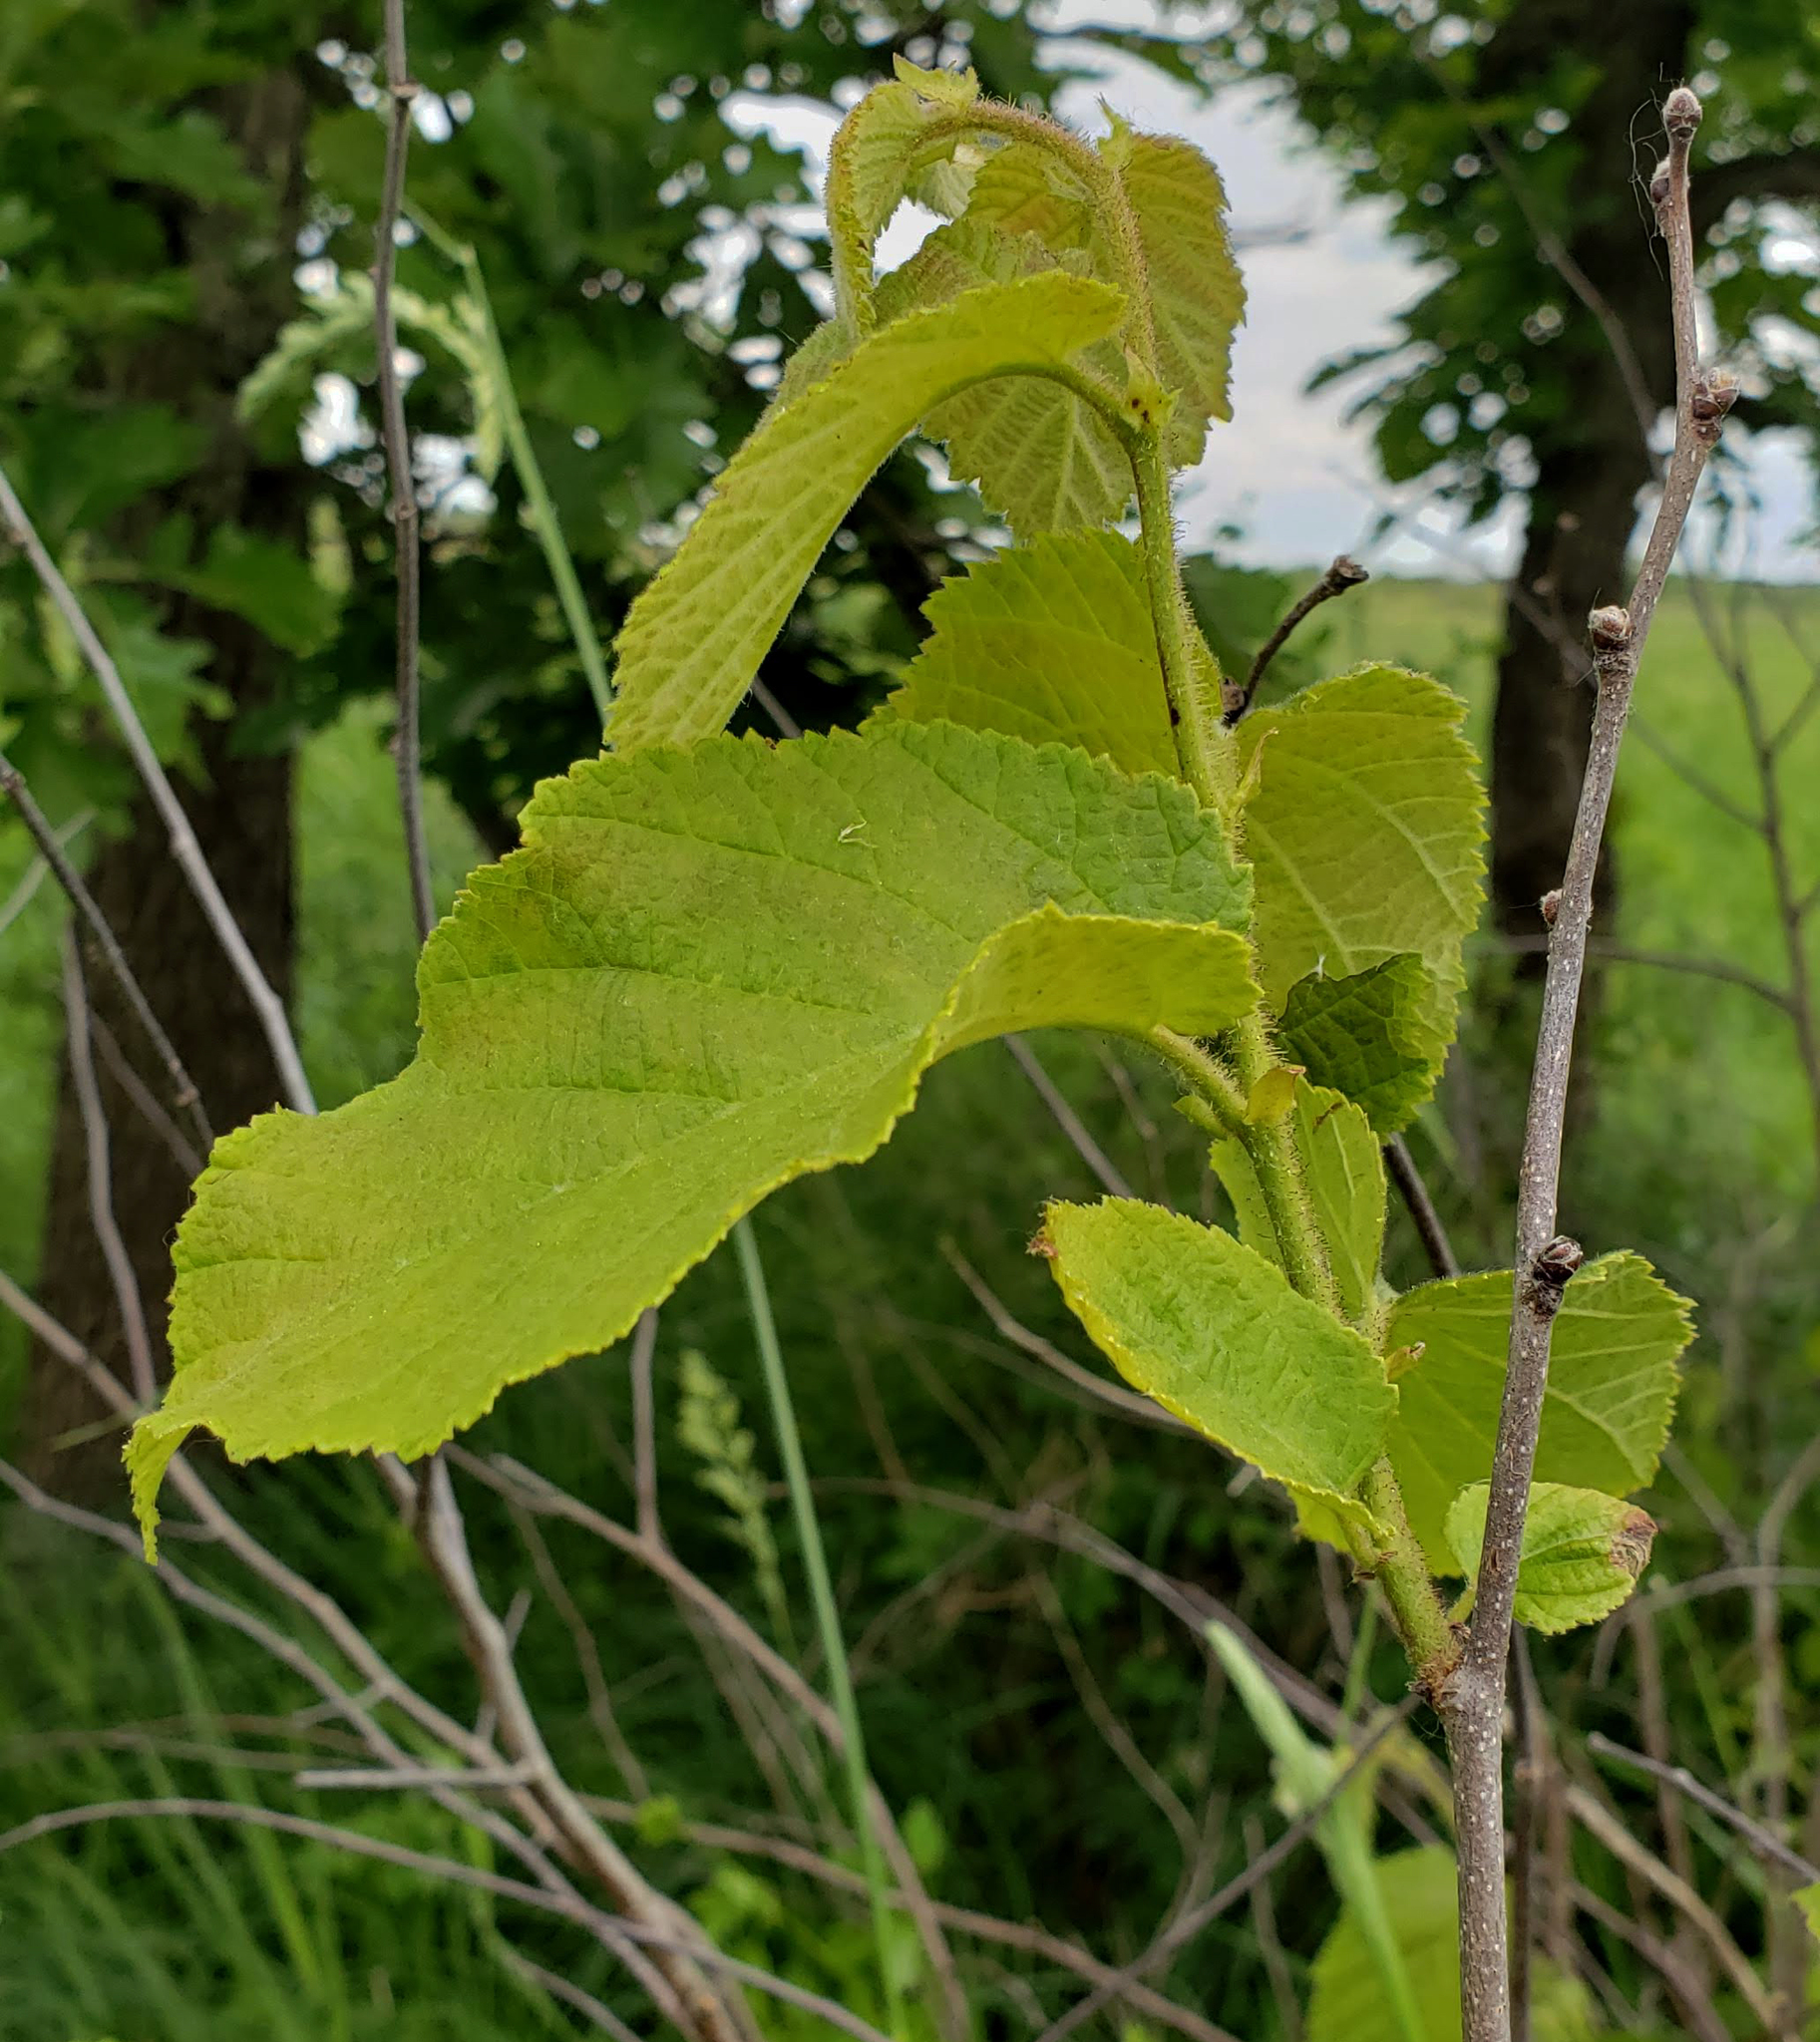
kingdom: Plantae
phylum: Tracheophyta
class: Magnoliopsida
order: Fagales
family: Betulaceae
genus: Corylus
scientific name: Corylus americana
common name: American hazel
